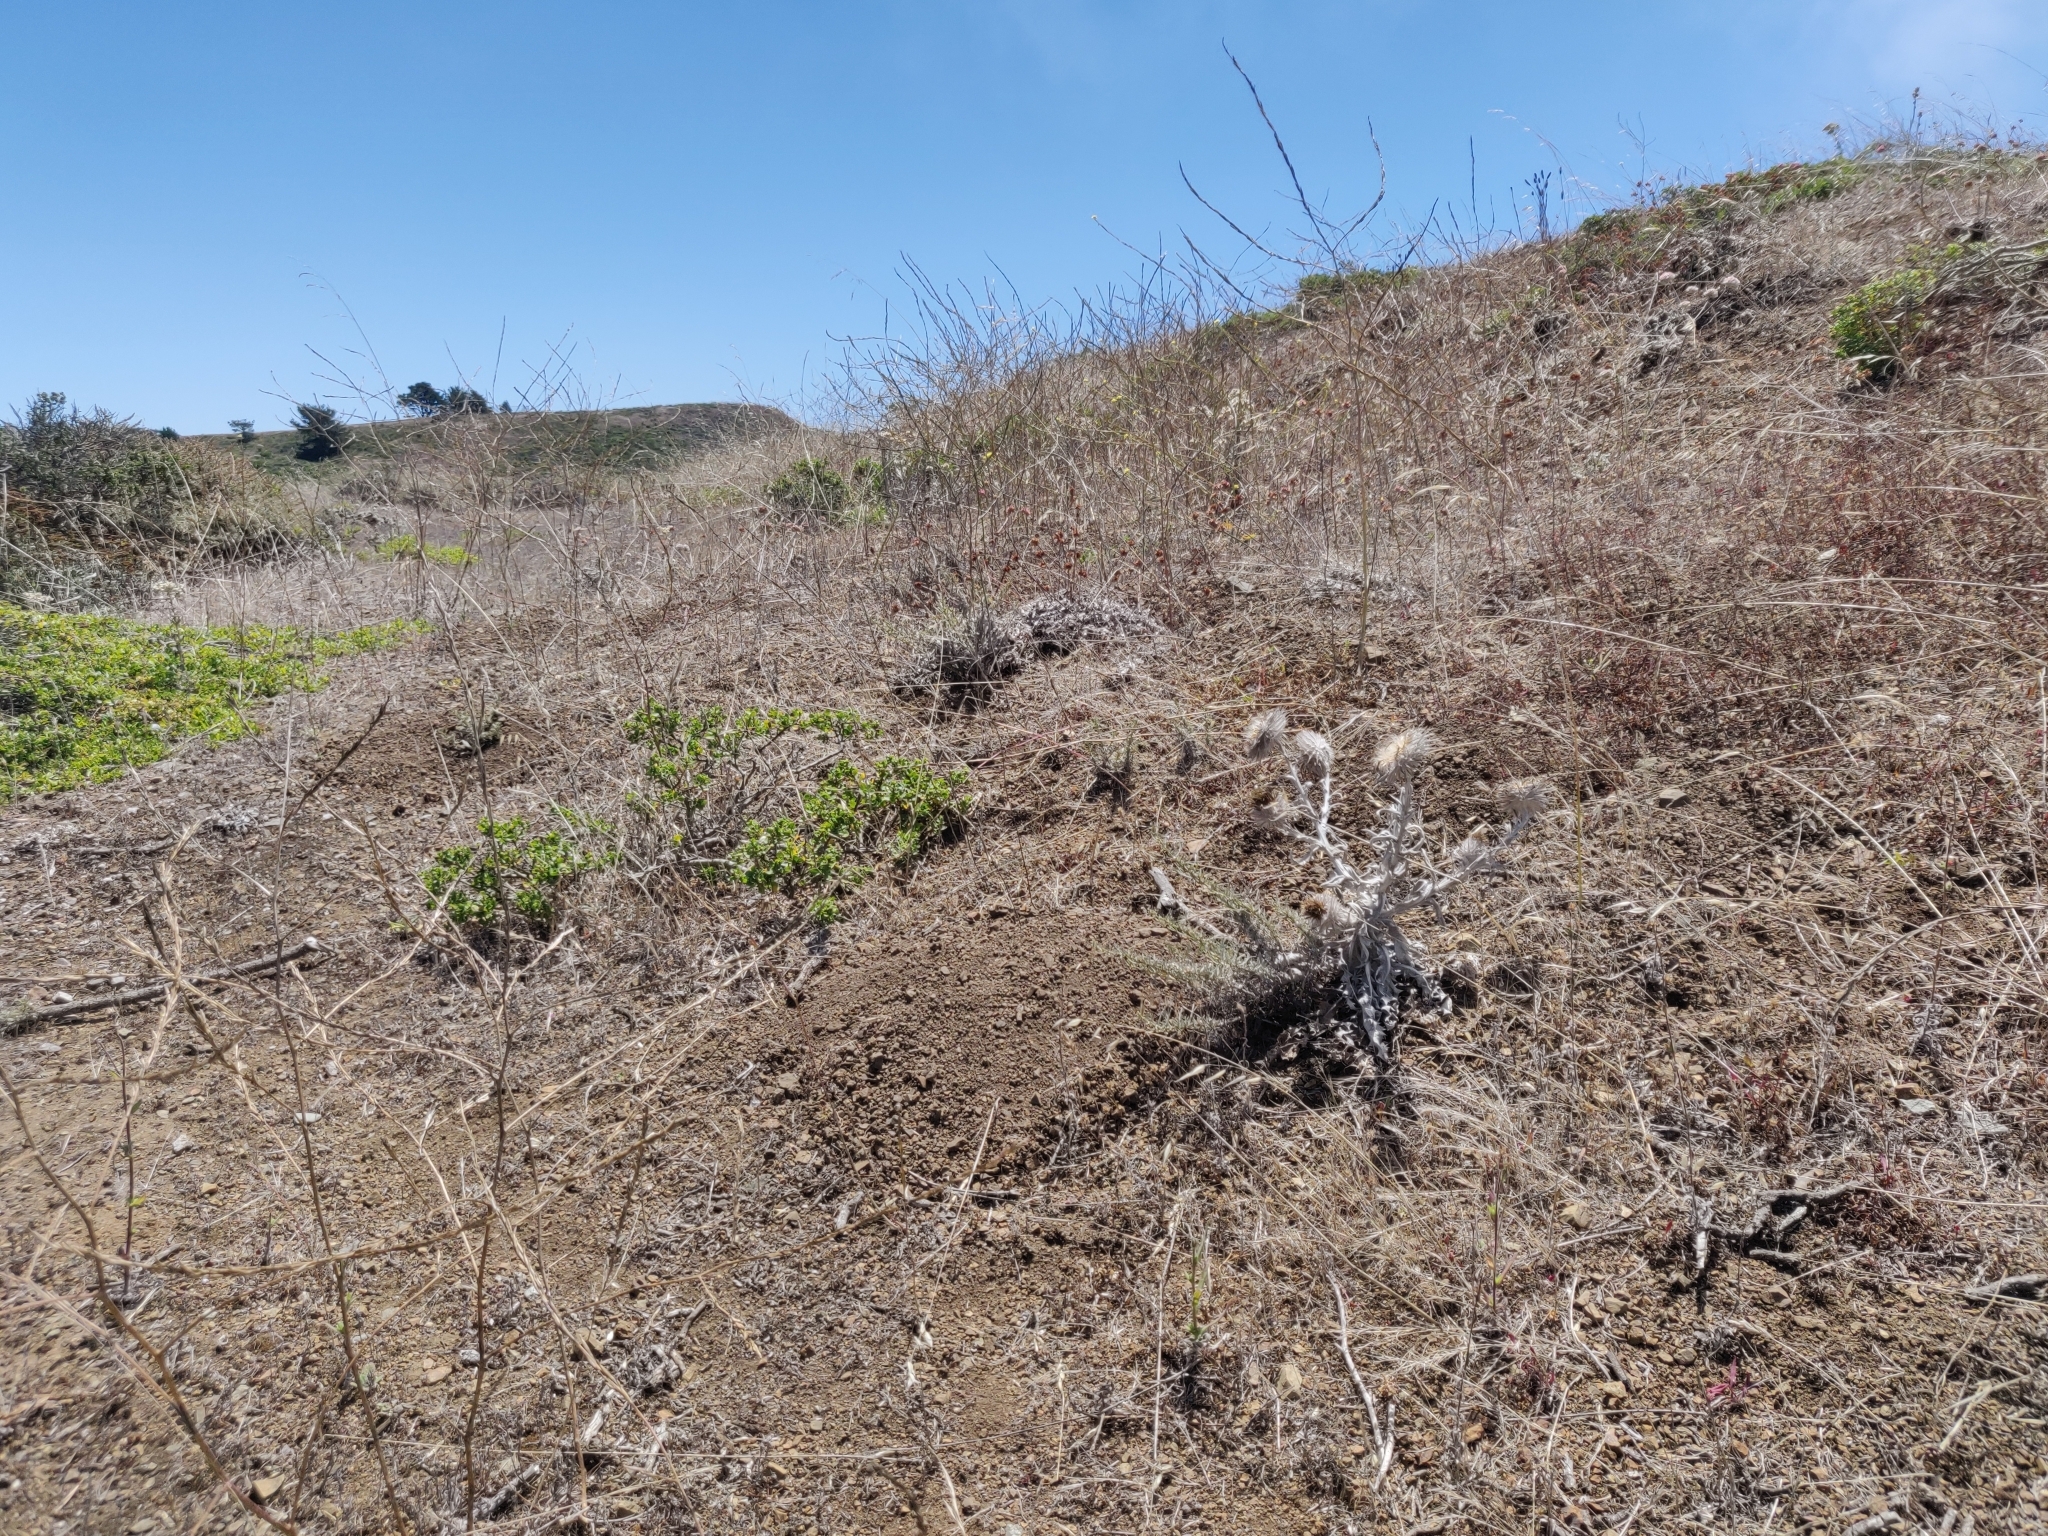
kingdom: Plantae
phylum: Tracheophyta
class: Magnoliopsida
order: Asterales
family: Asteraceae
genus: Cirsium
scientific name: Cirsium occidentale
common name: Western thistle
